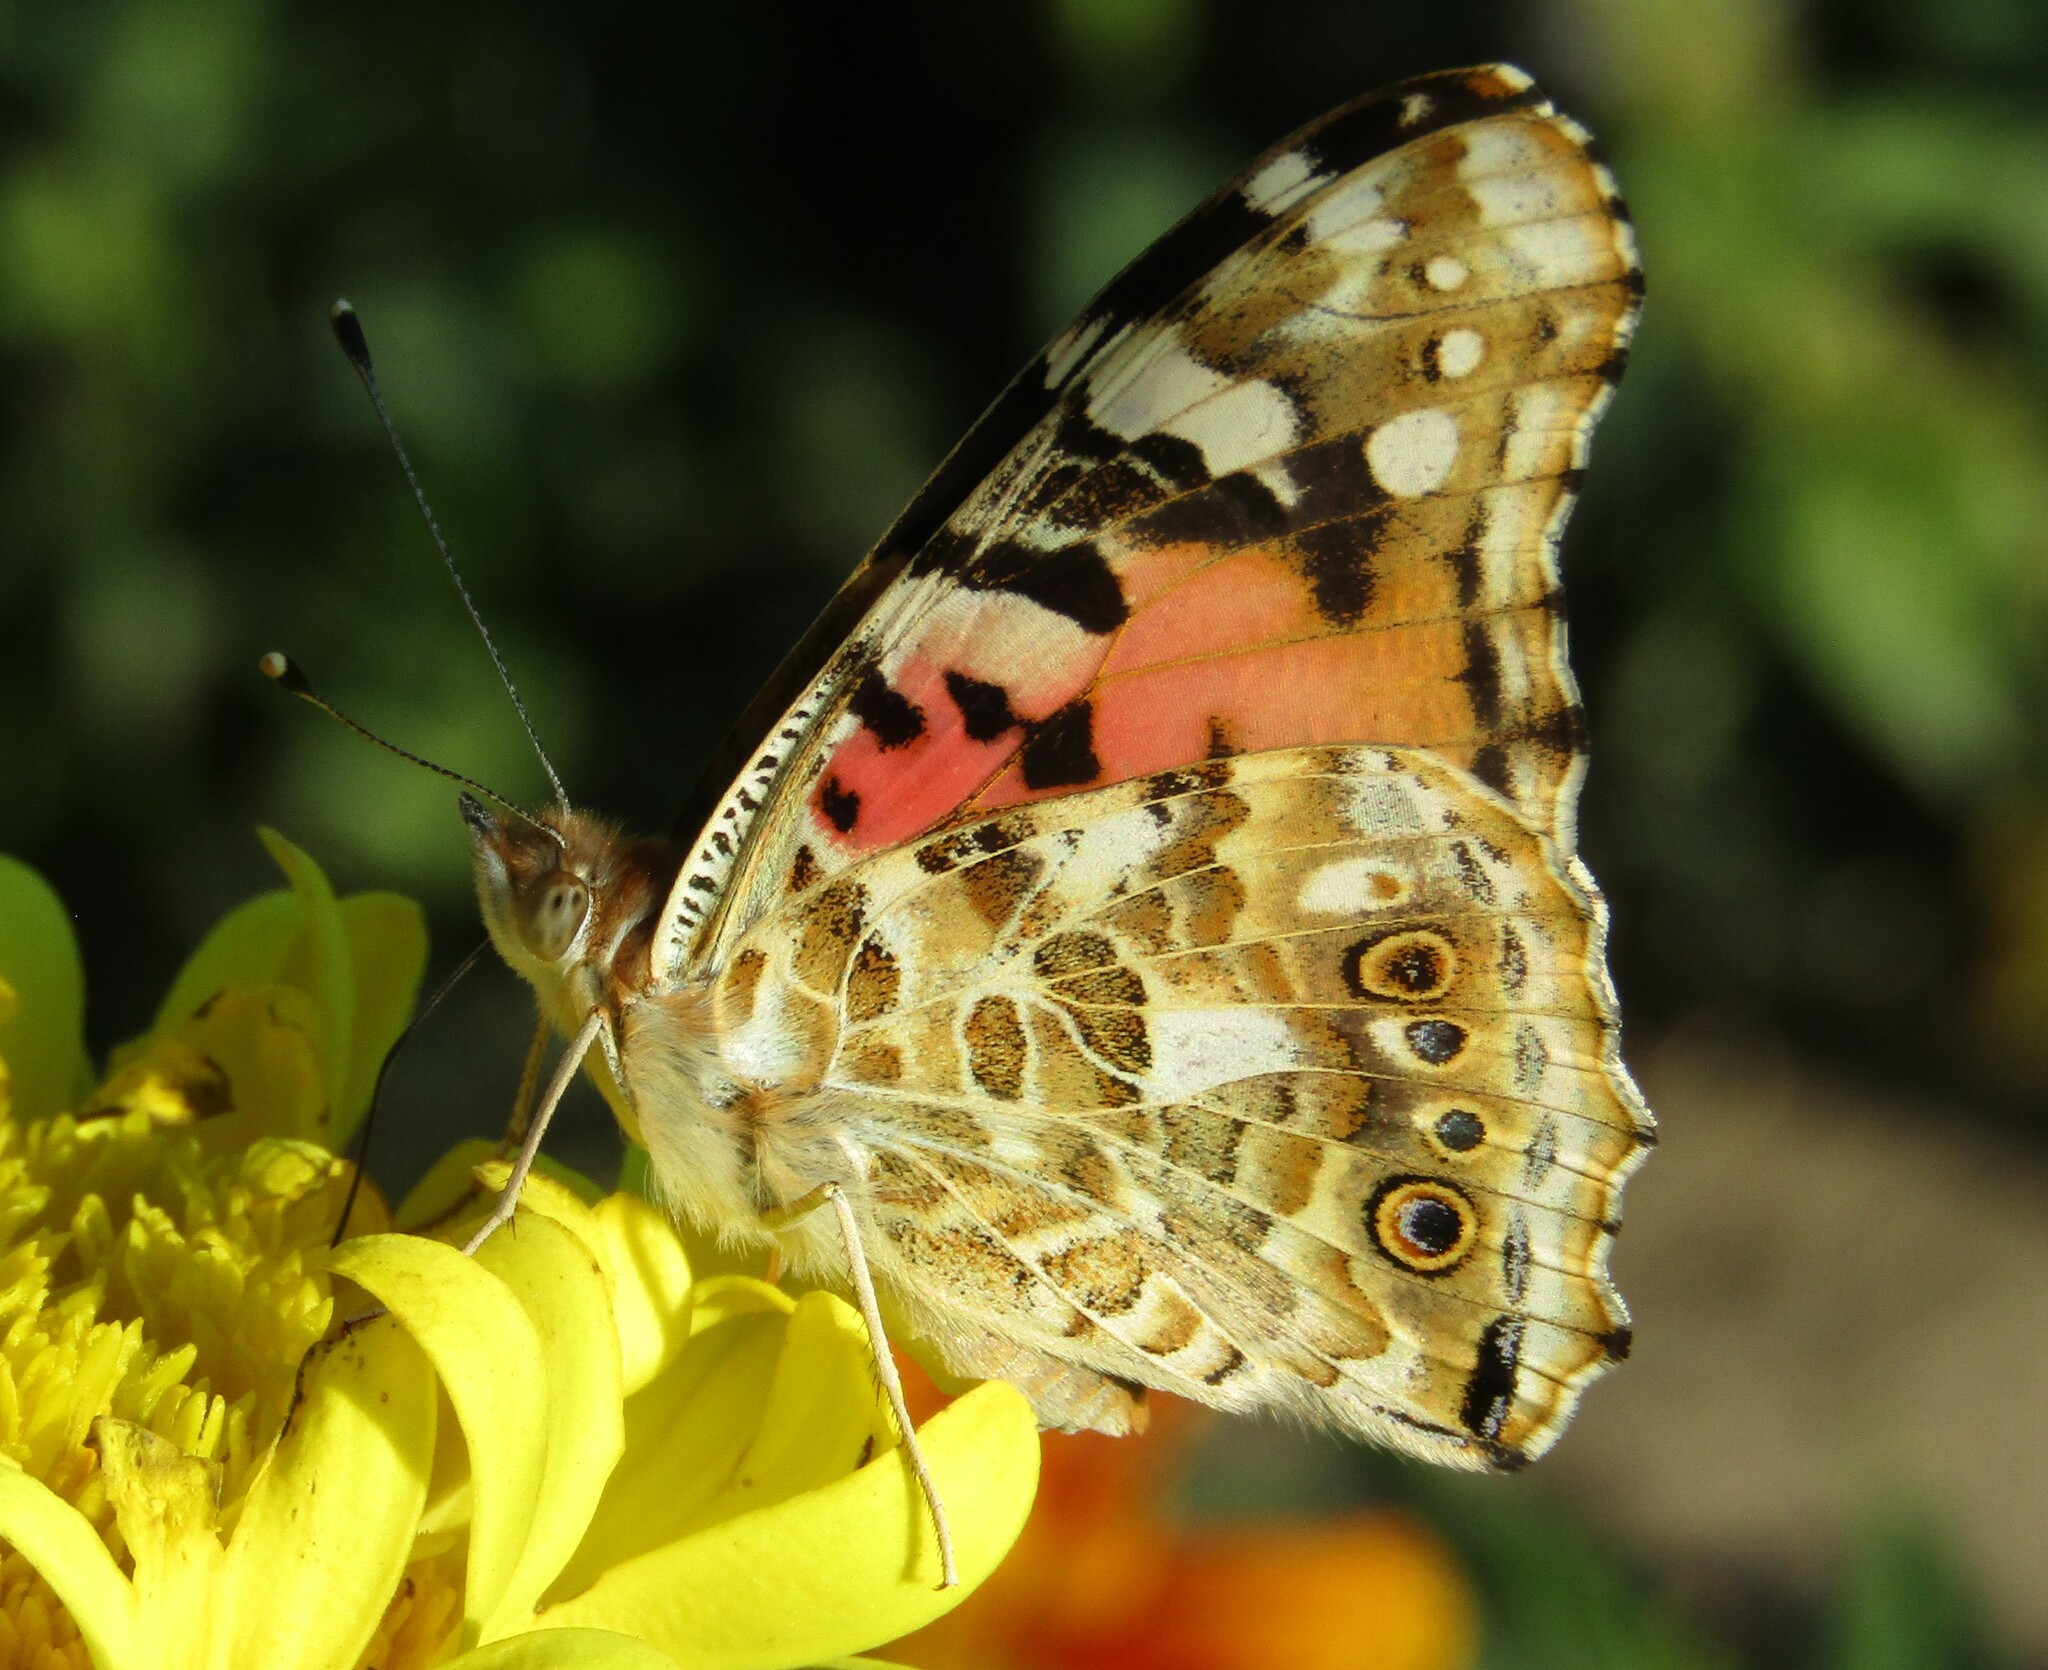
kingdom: Animalia
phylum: Arthropoda
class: Insecta
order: Lepidoptera
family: Nymphalidae
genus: Vanessa
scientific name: Vanessa cardui
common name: Painted lady
